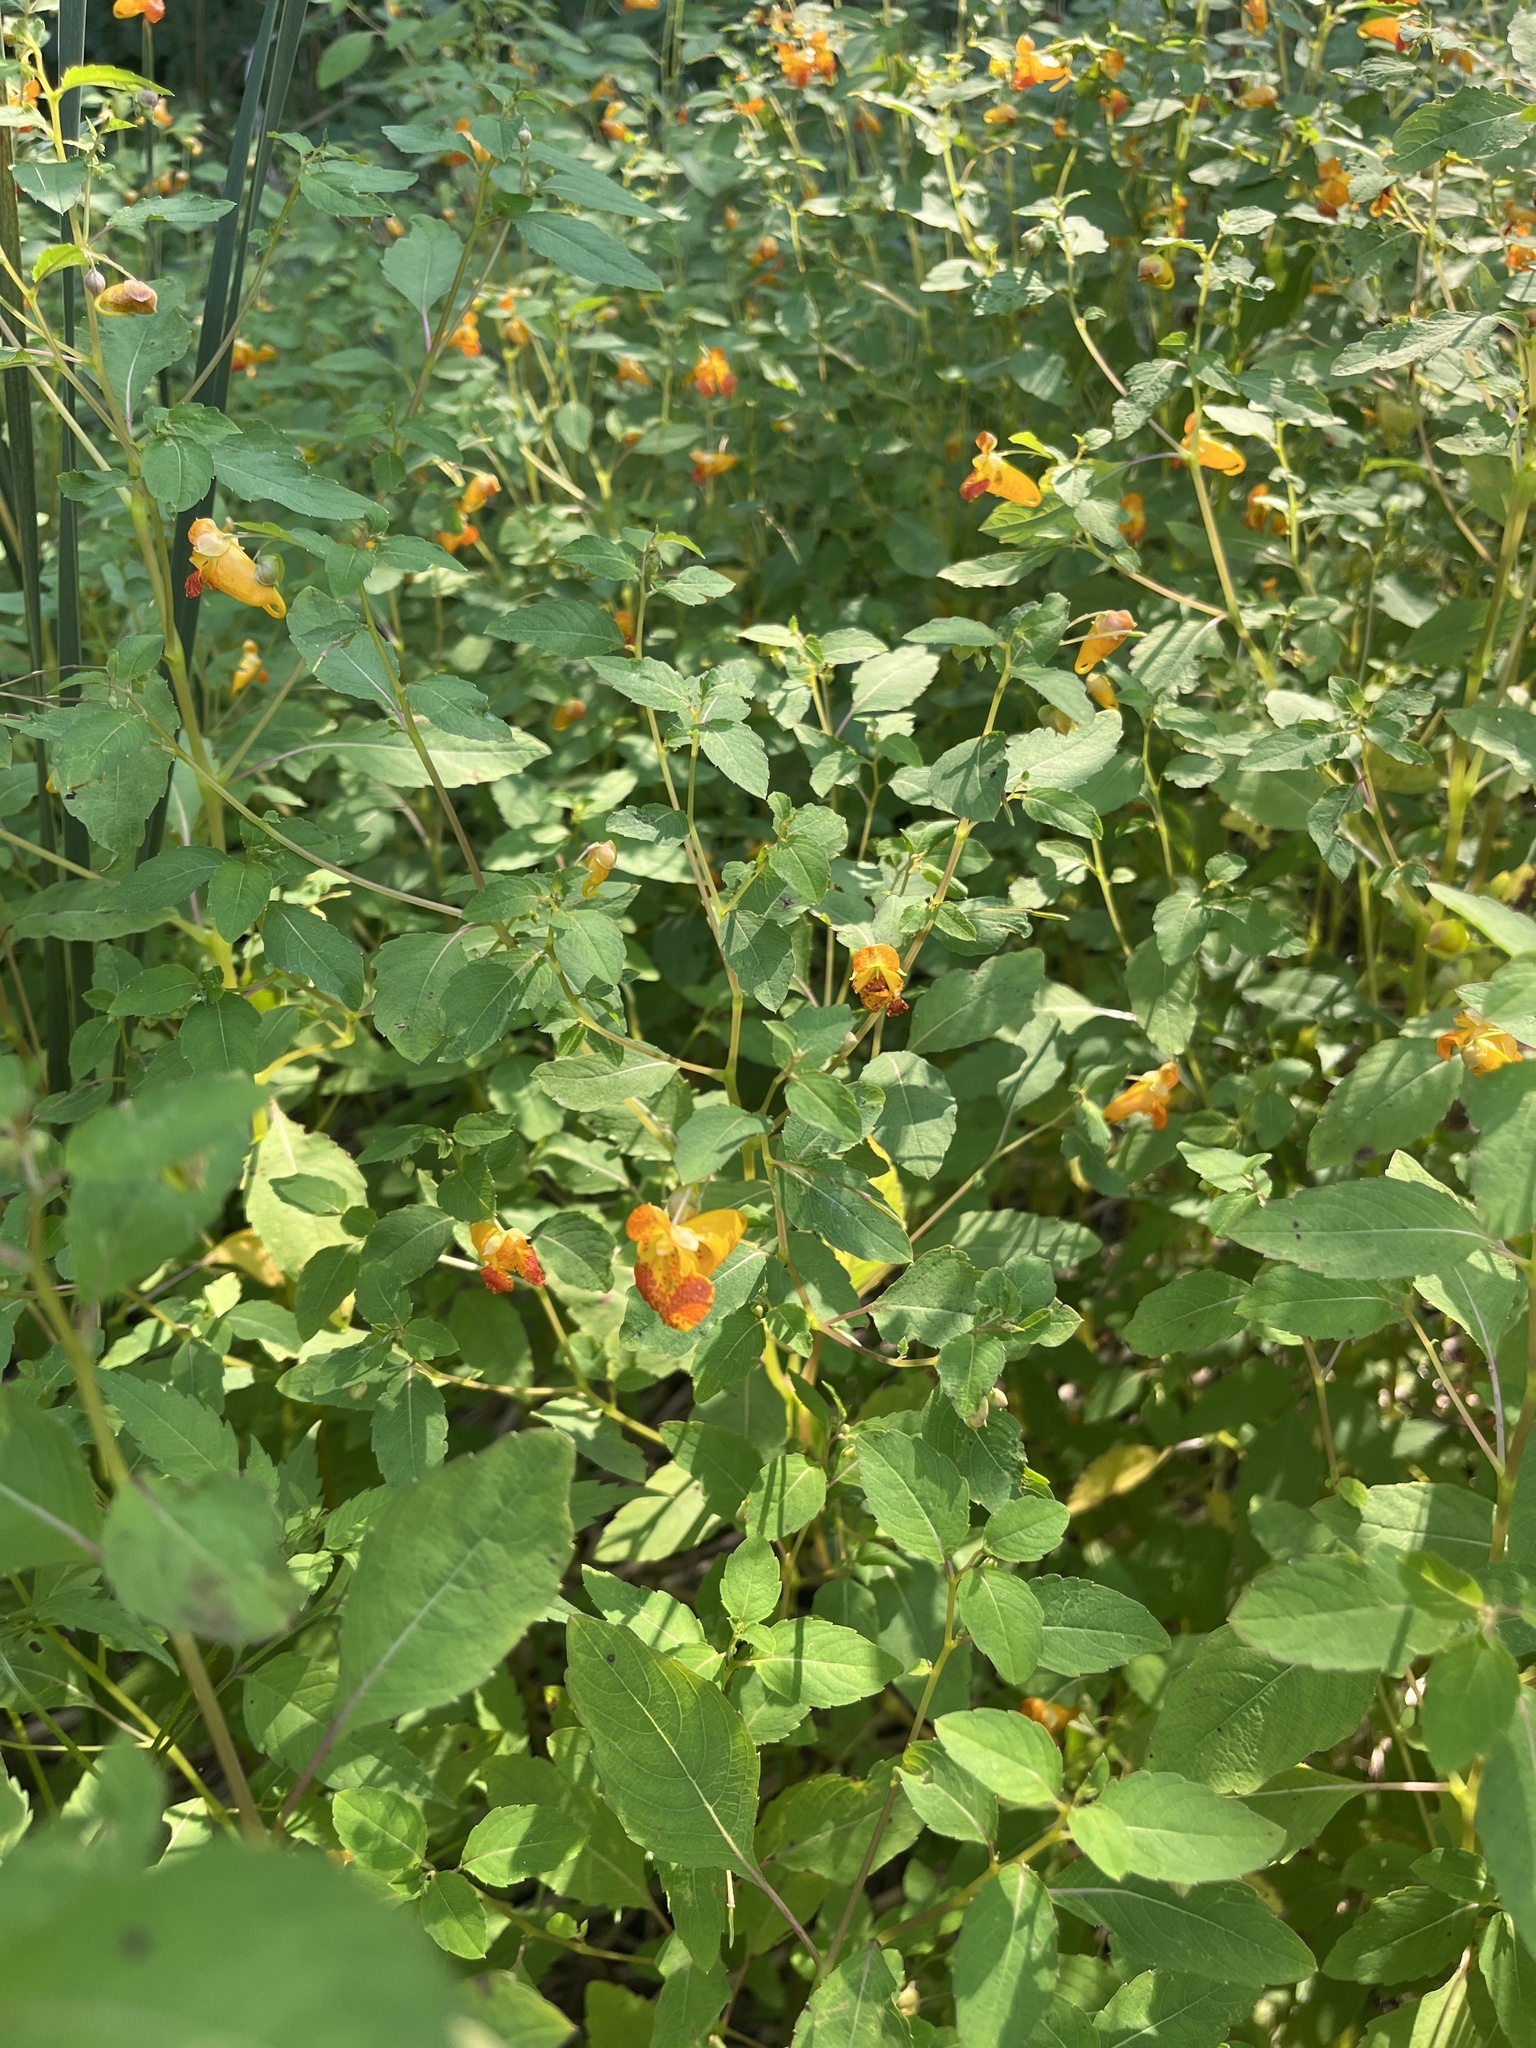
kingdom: Plantae
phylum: Tracheophyta
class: Magnoliopsida
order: Ericales
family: Balsaminaceae
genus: Impatiens
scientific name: Impatiens capensis
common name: Orange balsam
